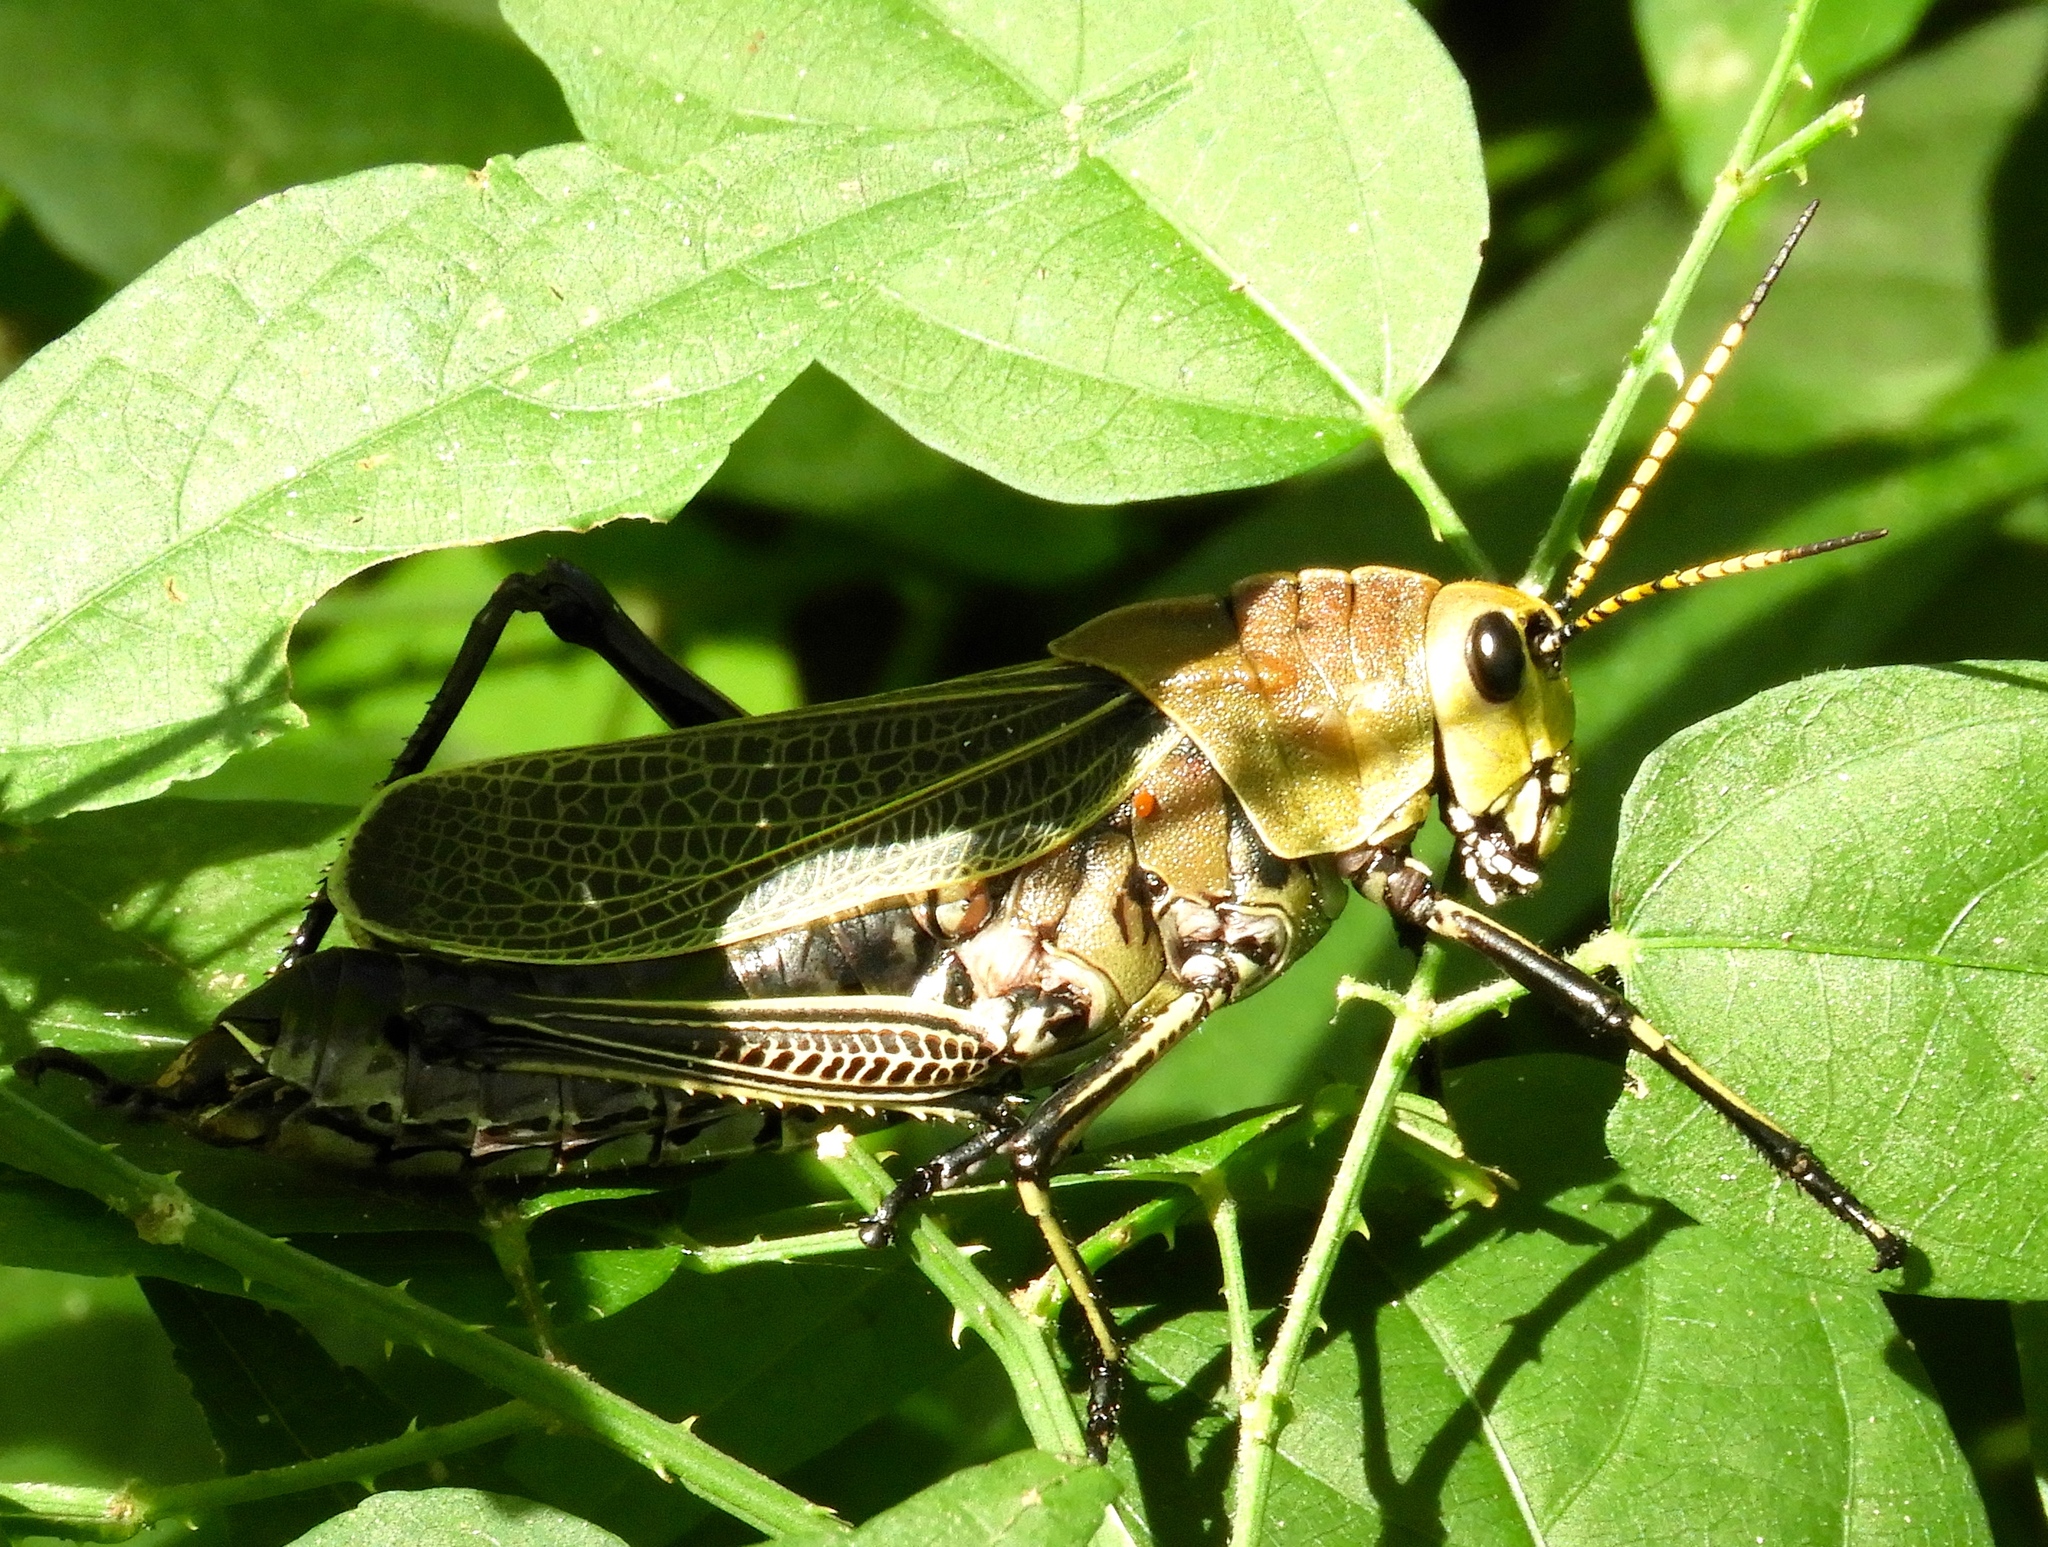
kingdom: Animalia
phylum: Arthropoda
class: Insecta
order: Orthoptera
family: Romaleidae
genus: Romalea
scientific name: Romalea
